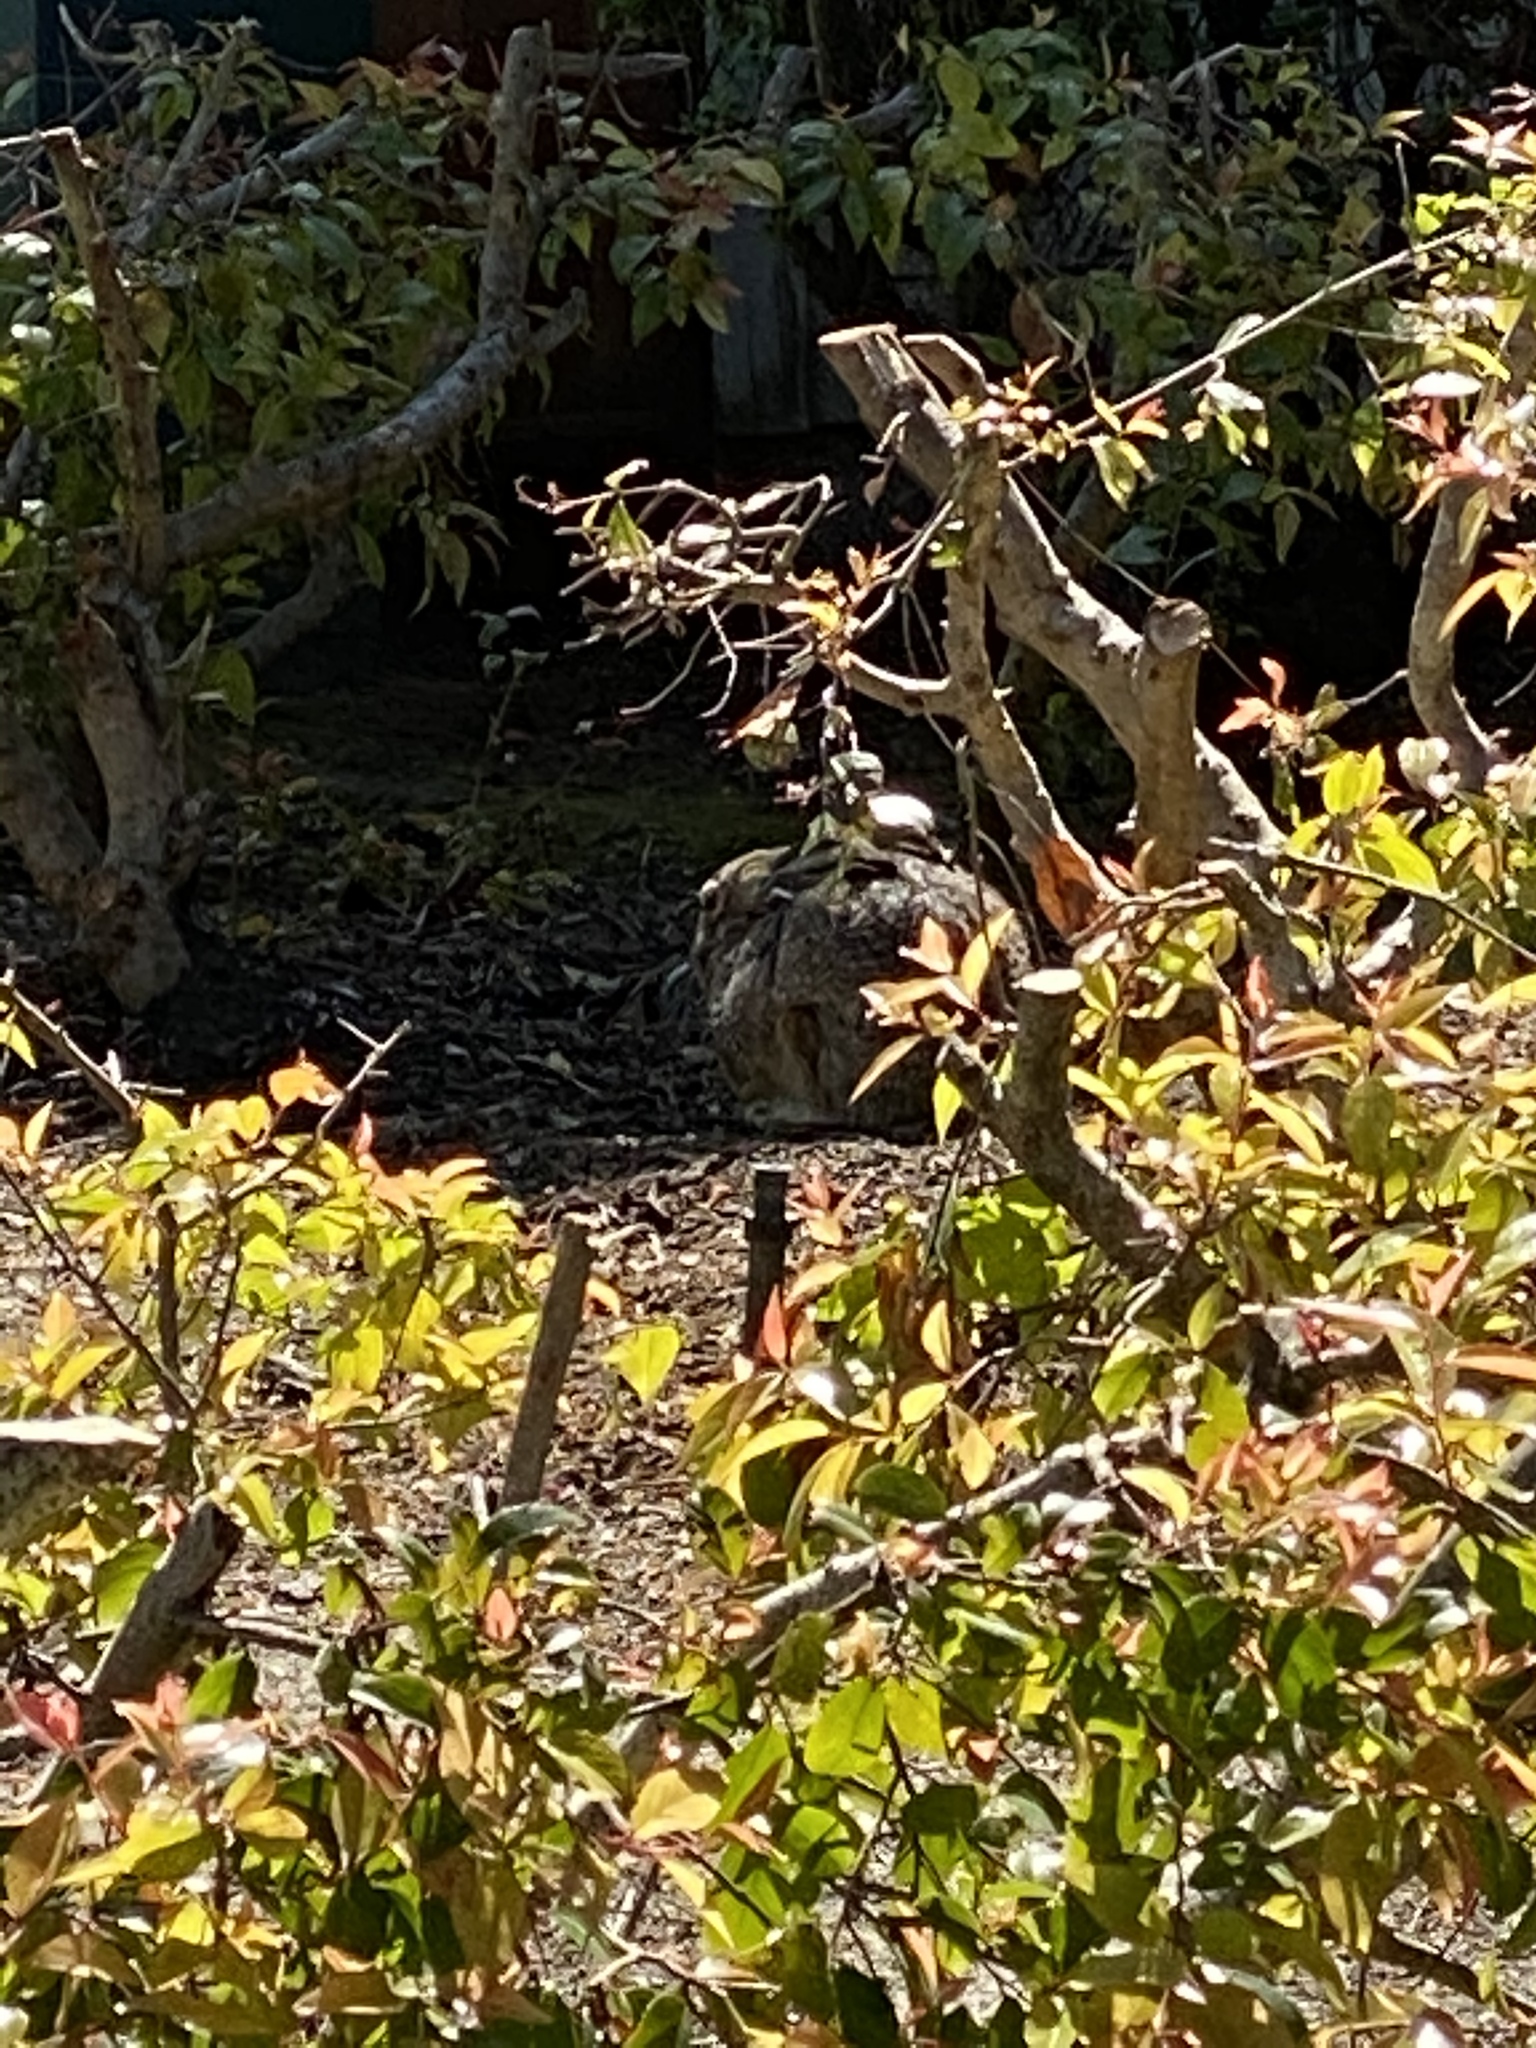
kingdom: Animalia
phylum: Chordata
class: Mammalia
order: Lagomorpha
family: Leporidae
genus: Lepus
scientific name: Lepus californicus
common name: Black-tailed jackrabbit
